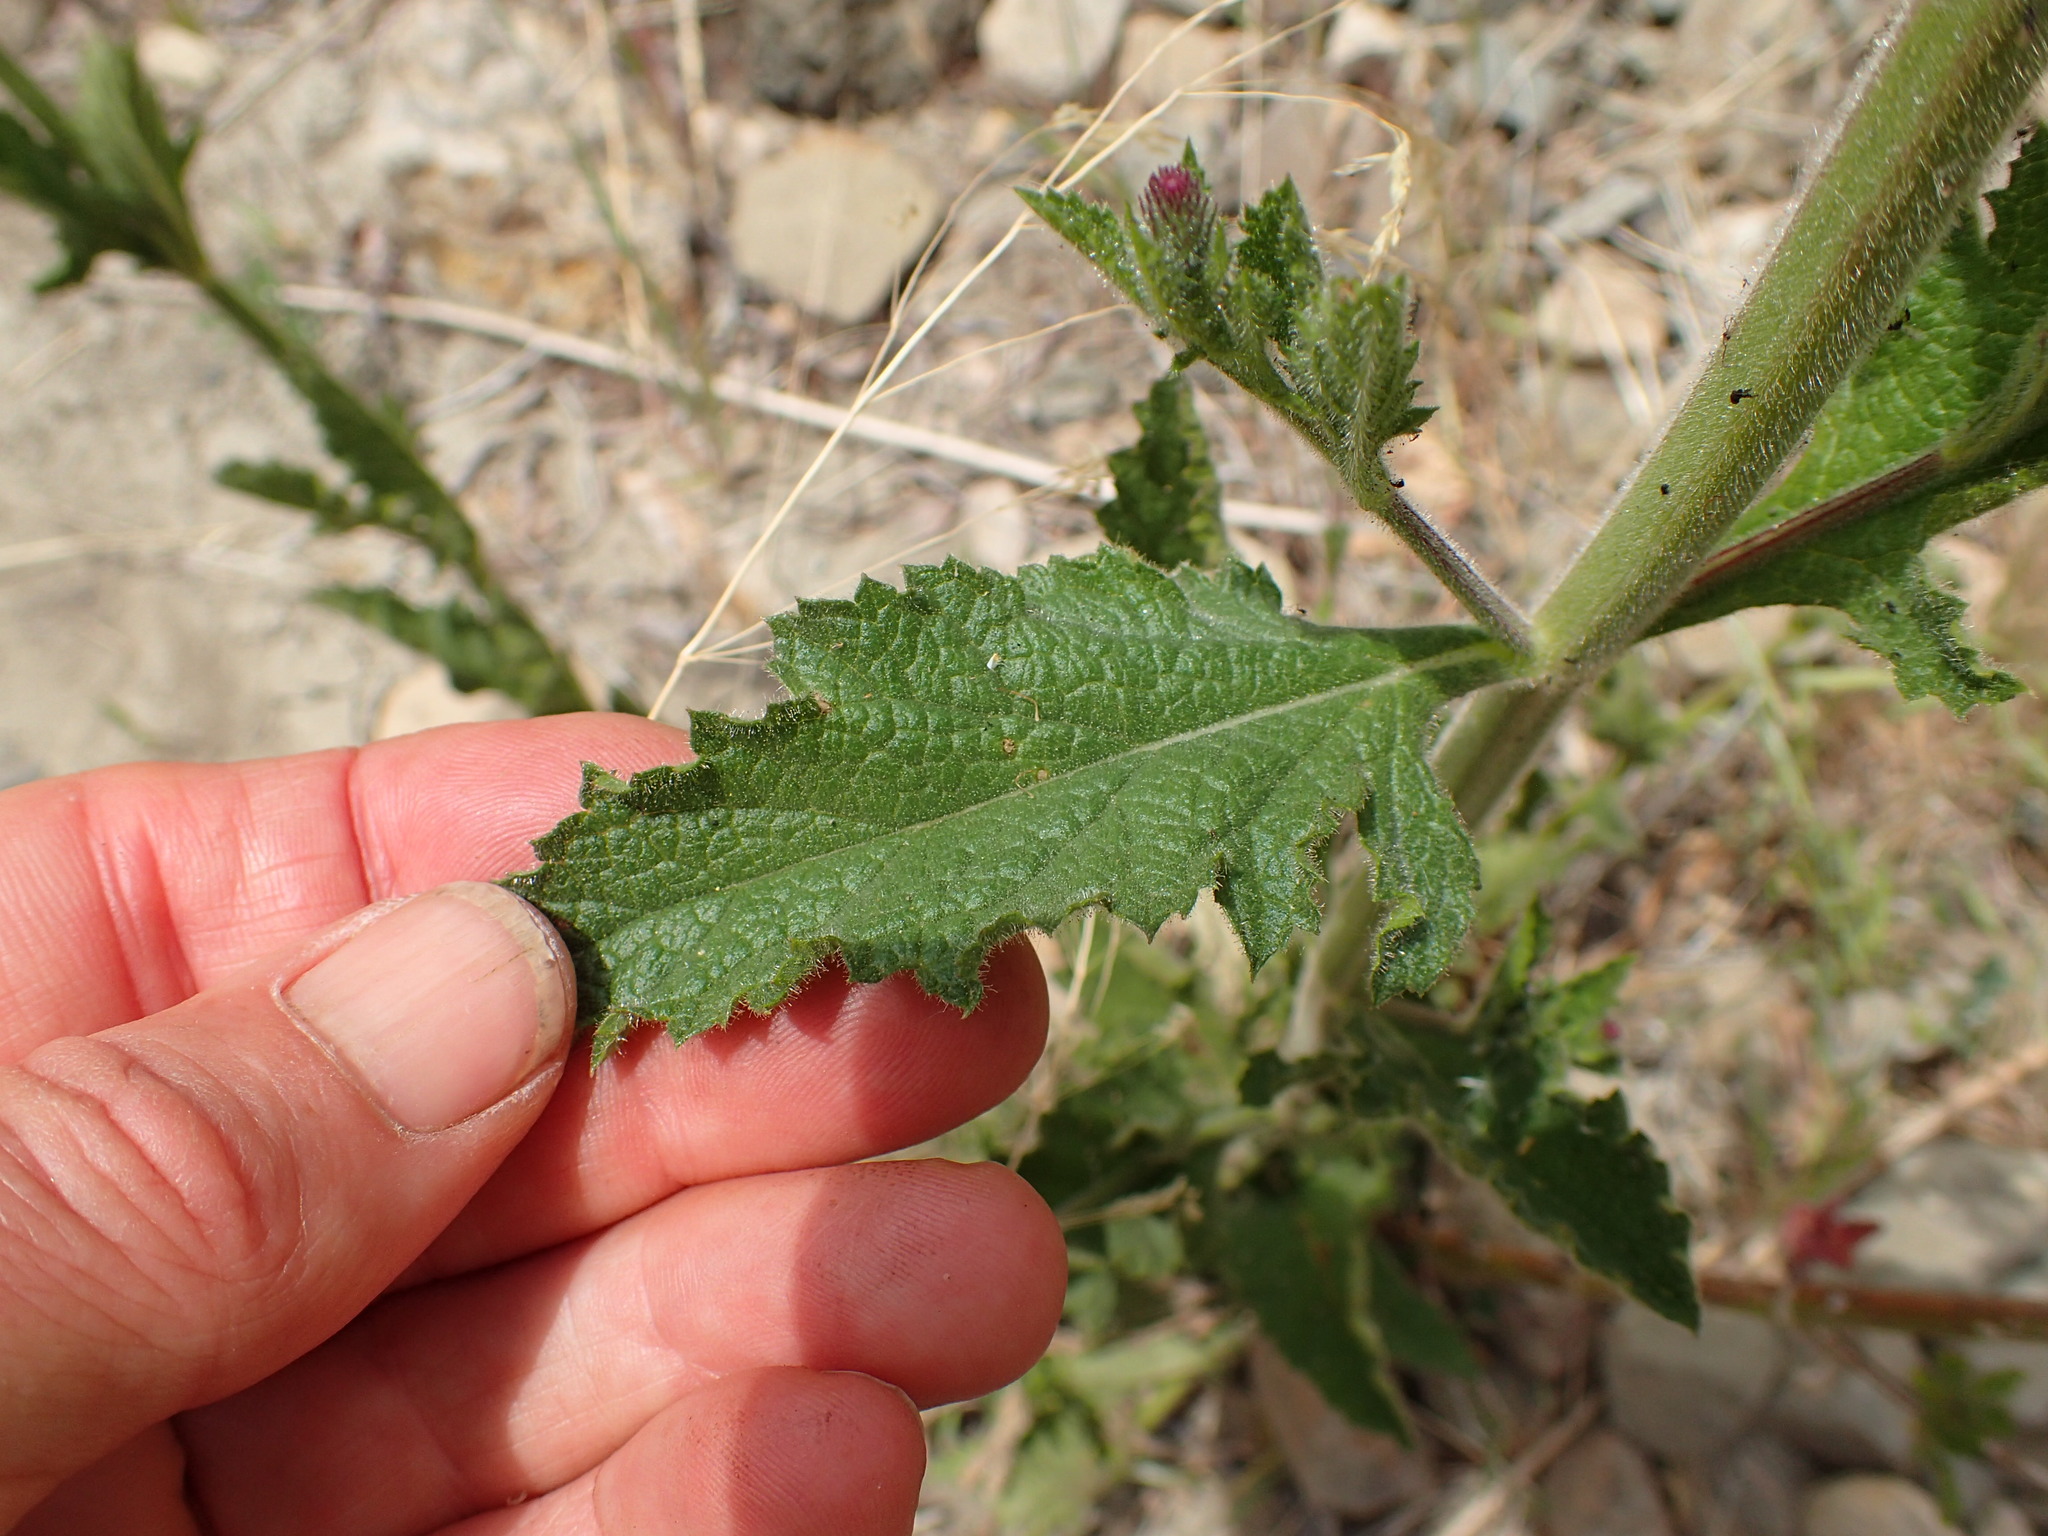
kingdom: Plantae
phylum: Tracheophyta
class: Magnoliopsida
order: Lamiales
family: Verbenaceae
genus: Verbena
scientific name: Verbena lasiostachys
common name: Vervain
